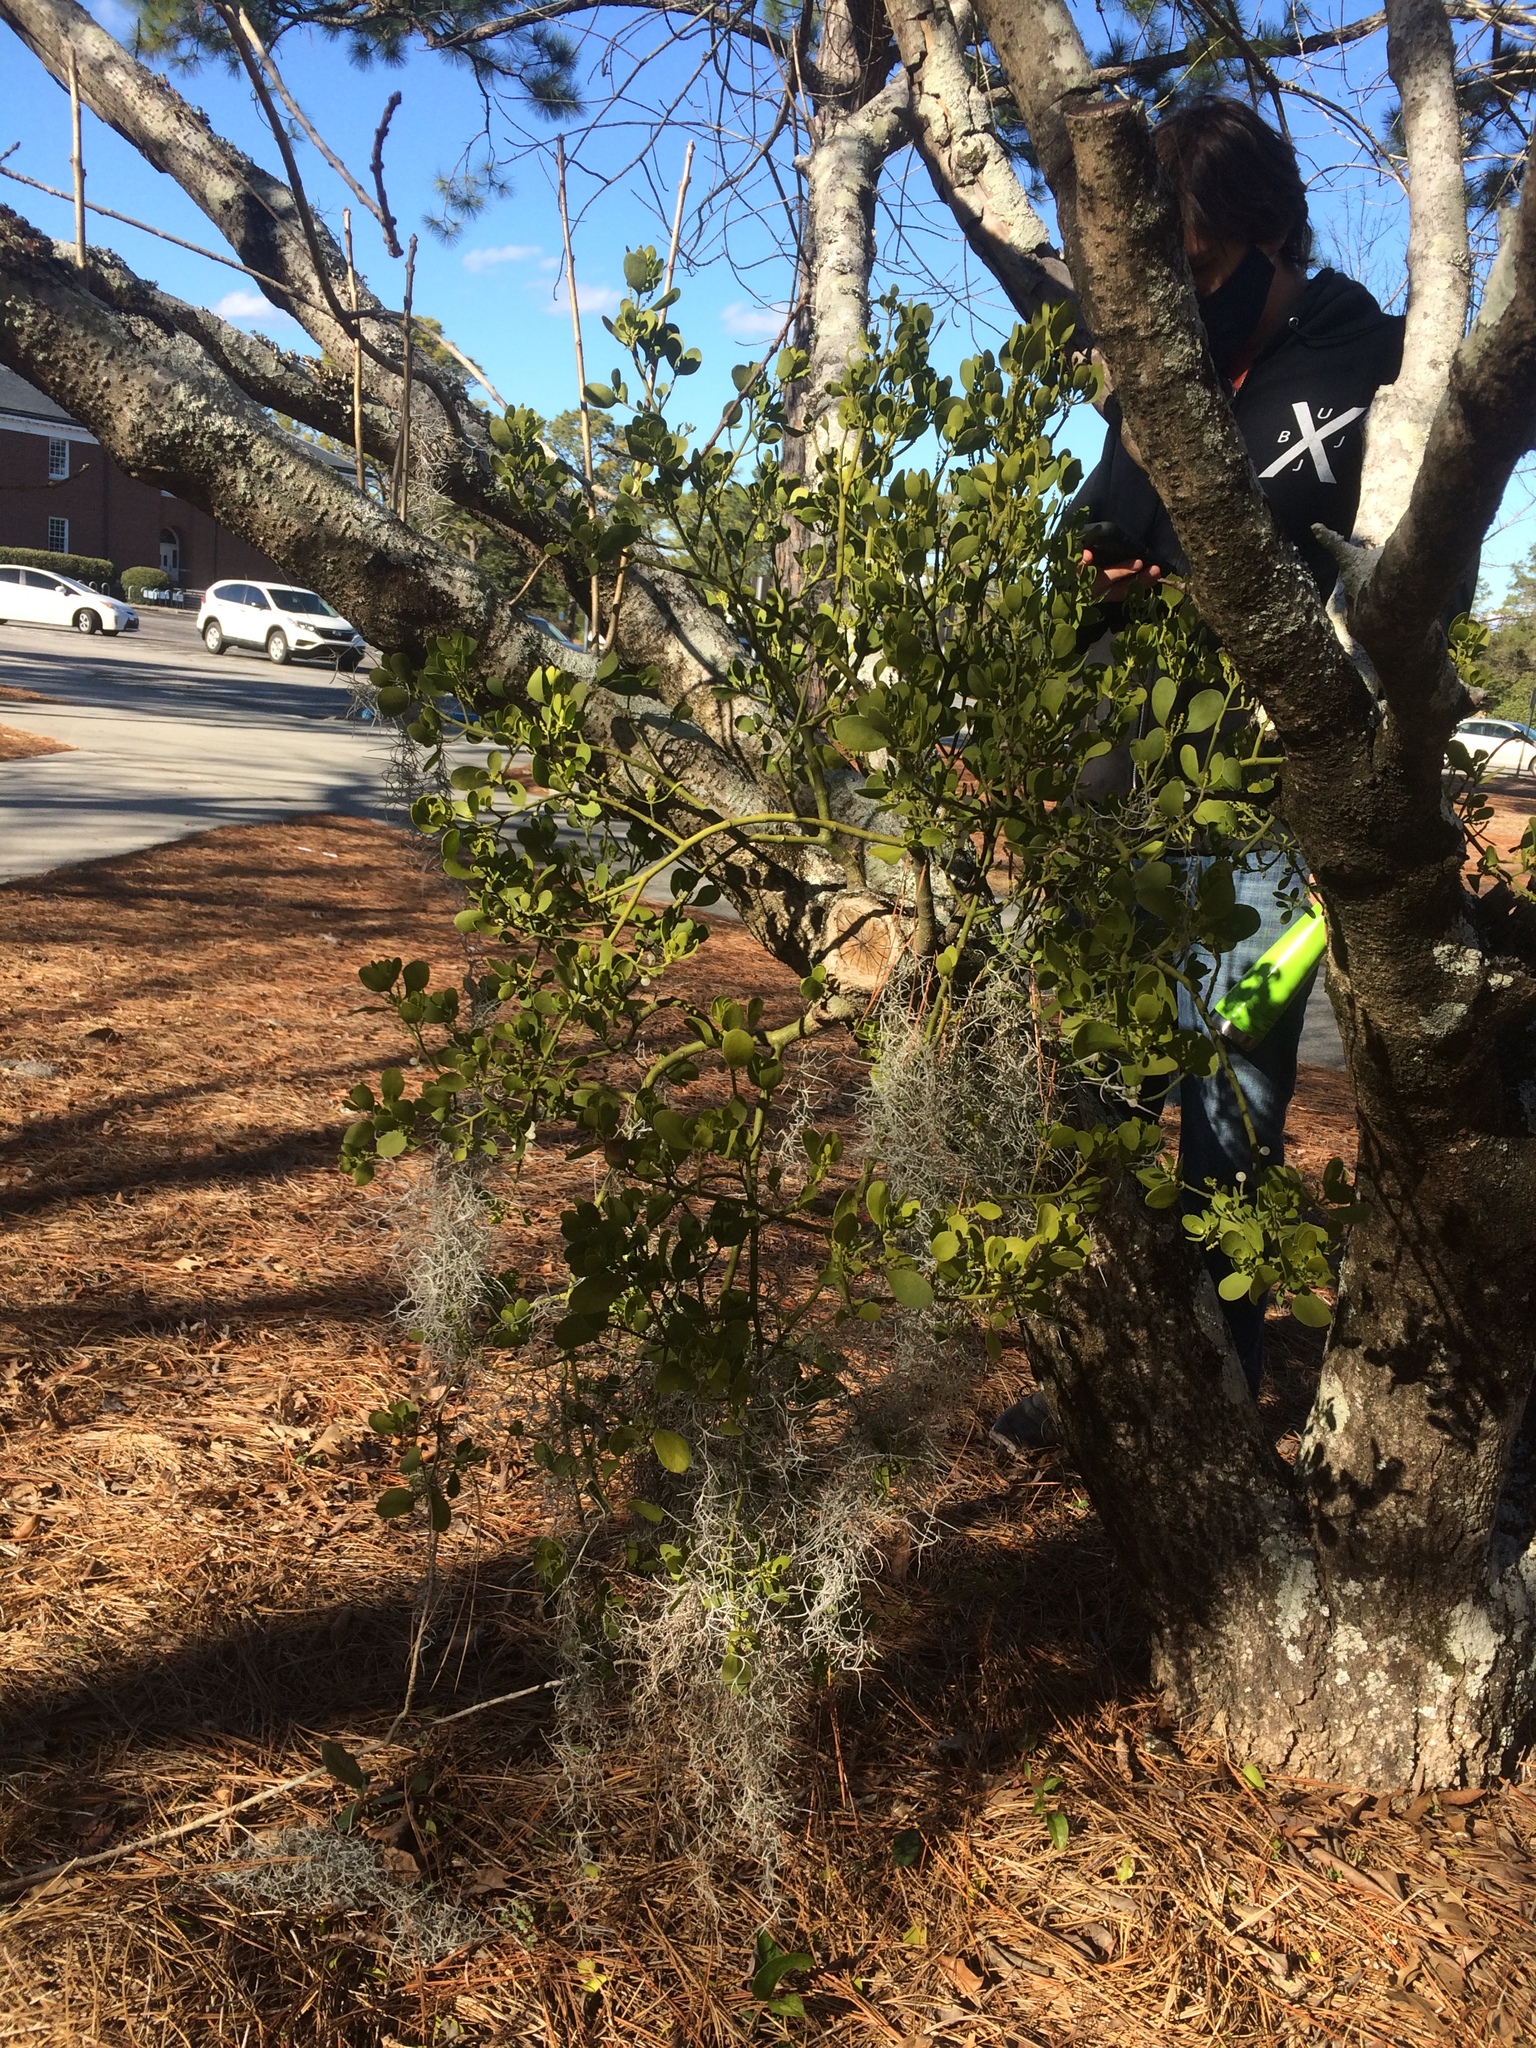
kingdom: Plantae
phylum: Tracheophyta
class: Magnoliopsida
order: Santalales
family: Viscaceae
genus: Phoradendron
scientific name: Phoradendron leucarpum
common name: Pacific mistletoe
